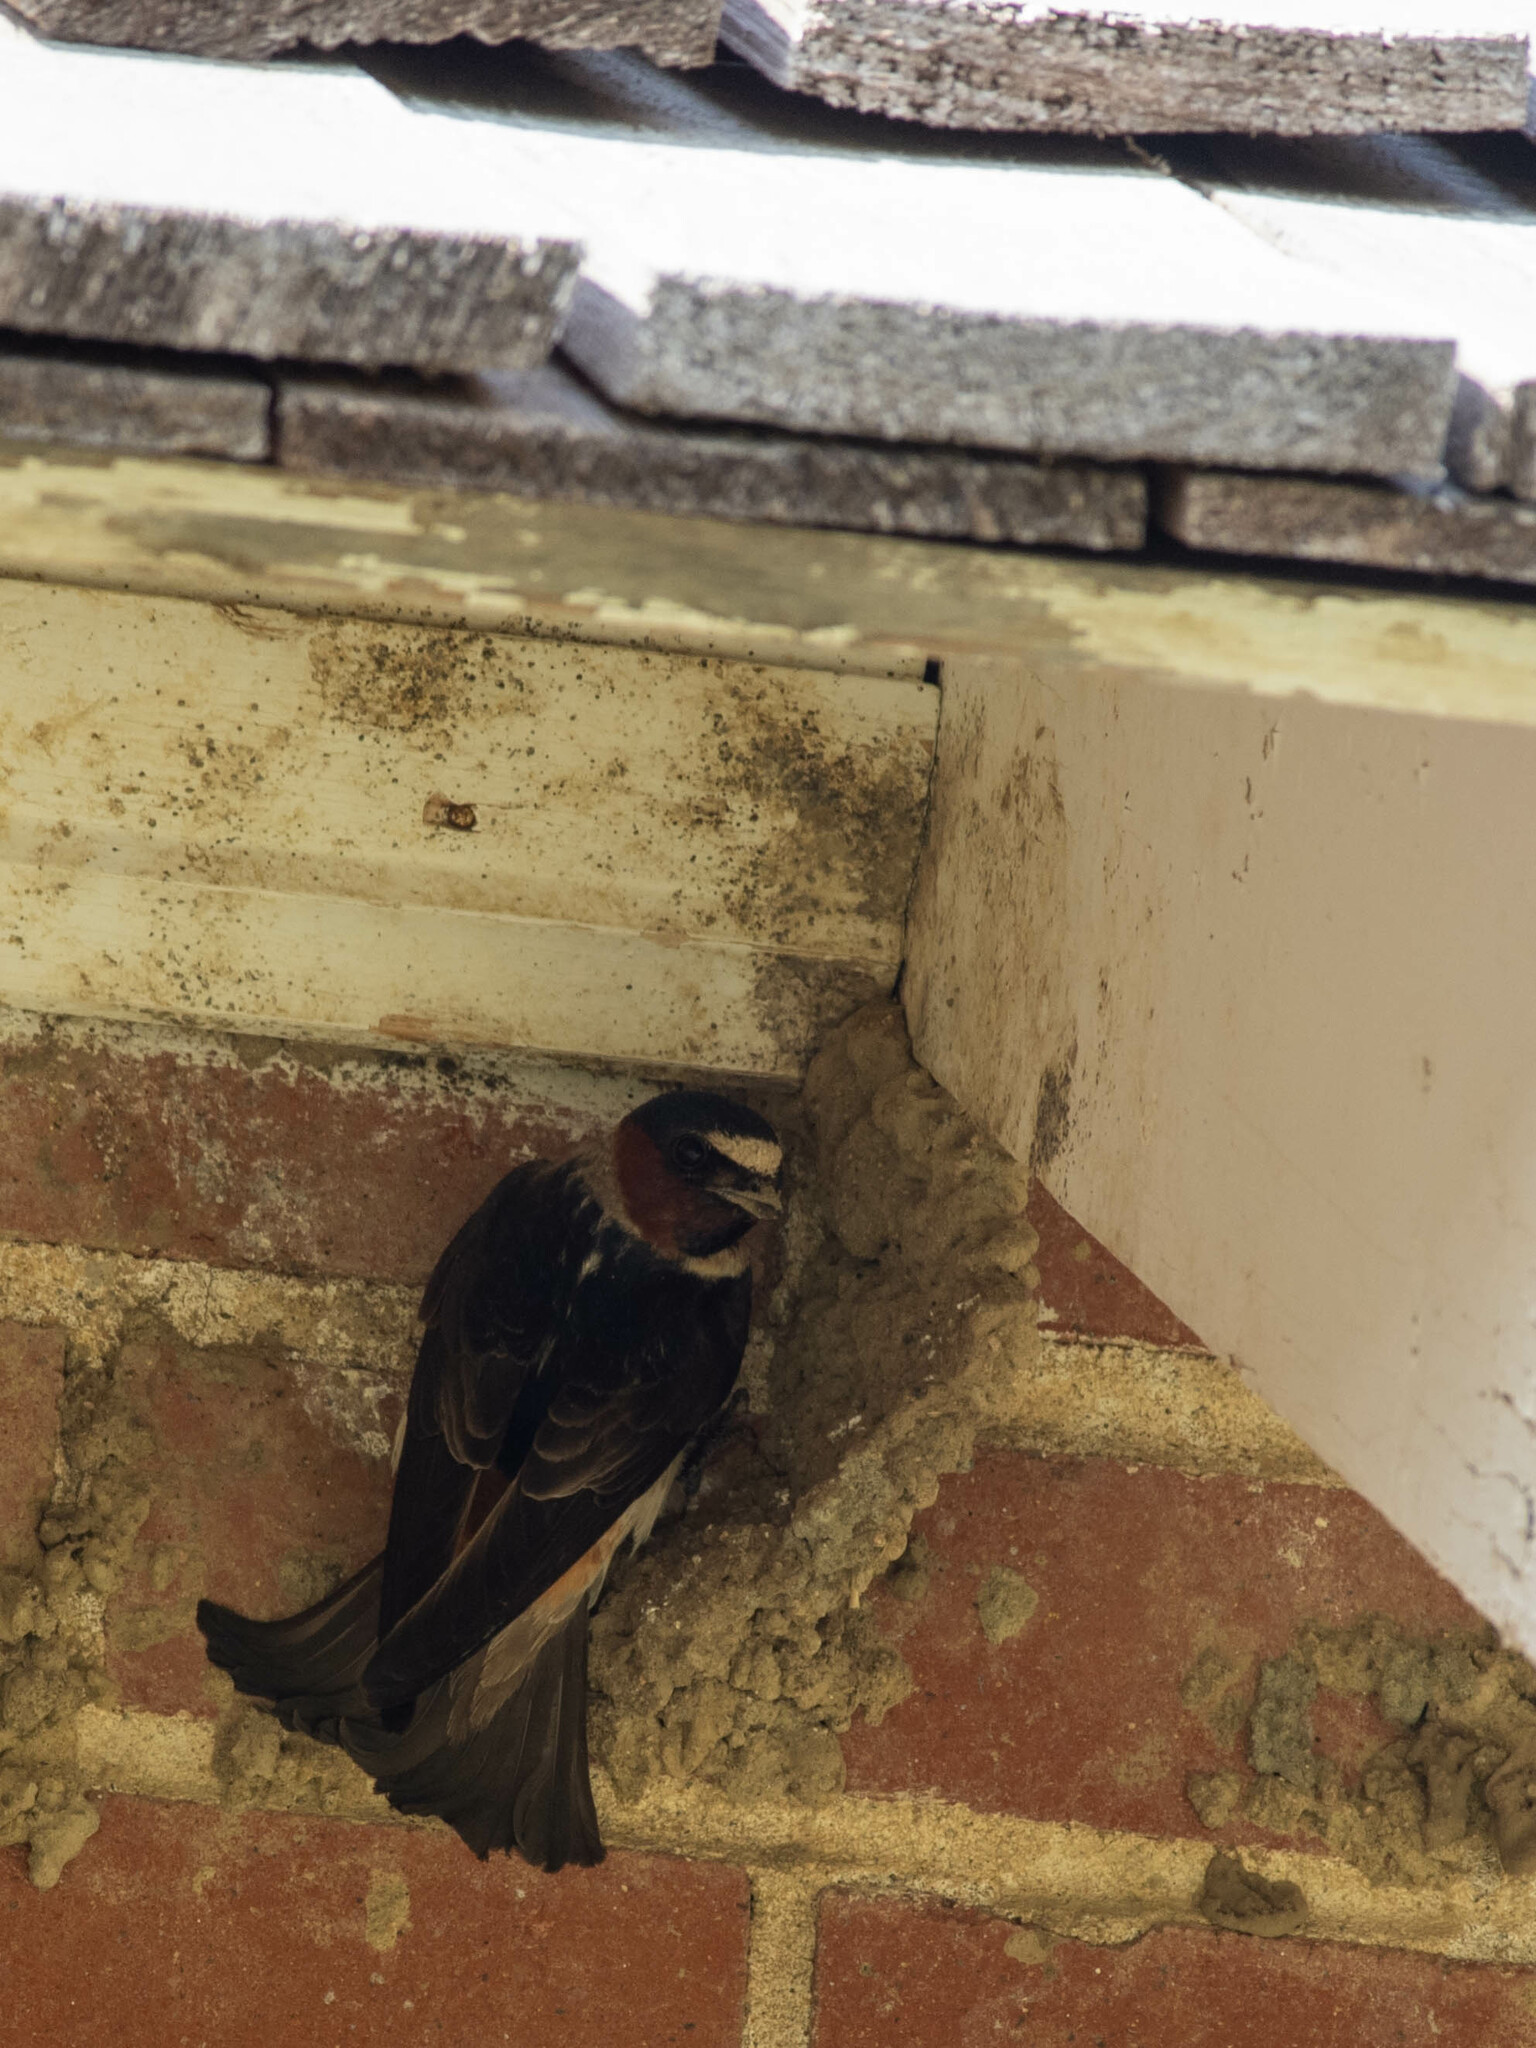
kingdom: Animalia
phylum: Chordata
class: Aves
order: Passeriformes
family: Hirundinidae
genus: Petrochelidon
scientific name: Petrochelidon pyrrhonota
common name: American cliff swallow
